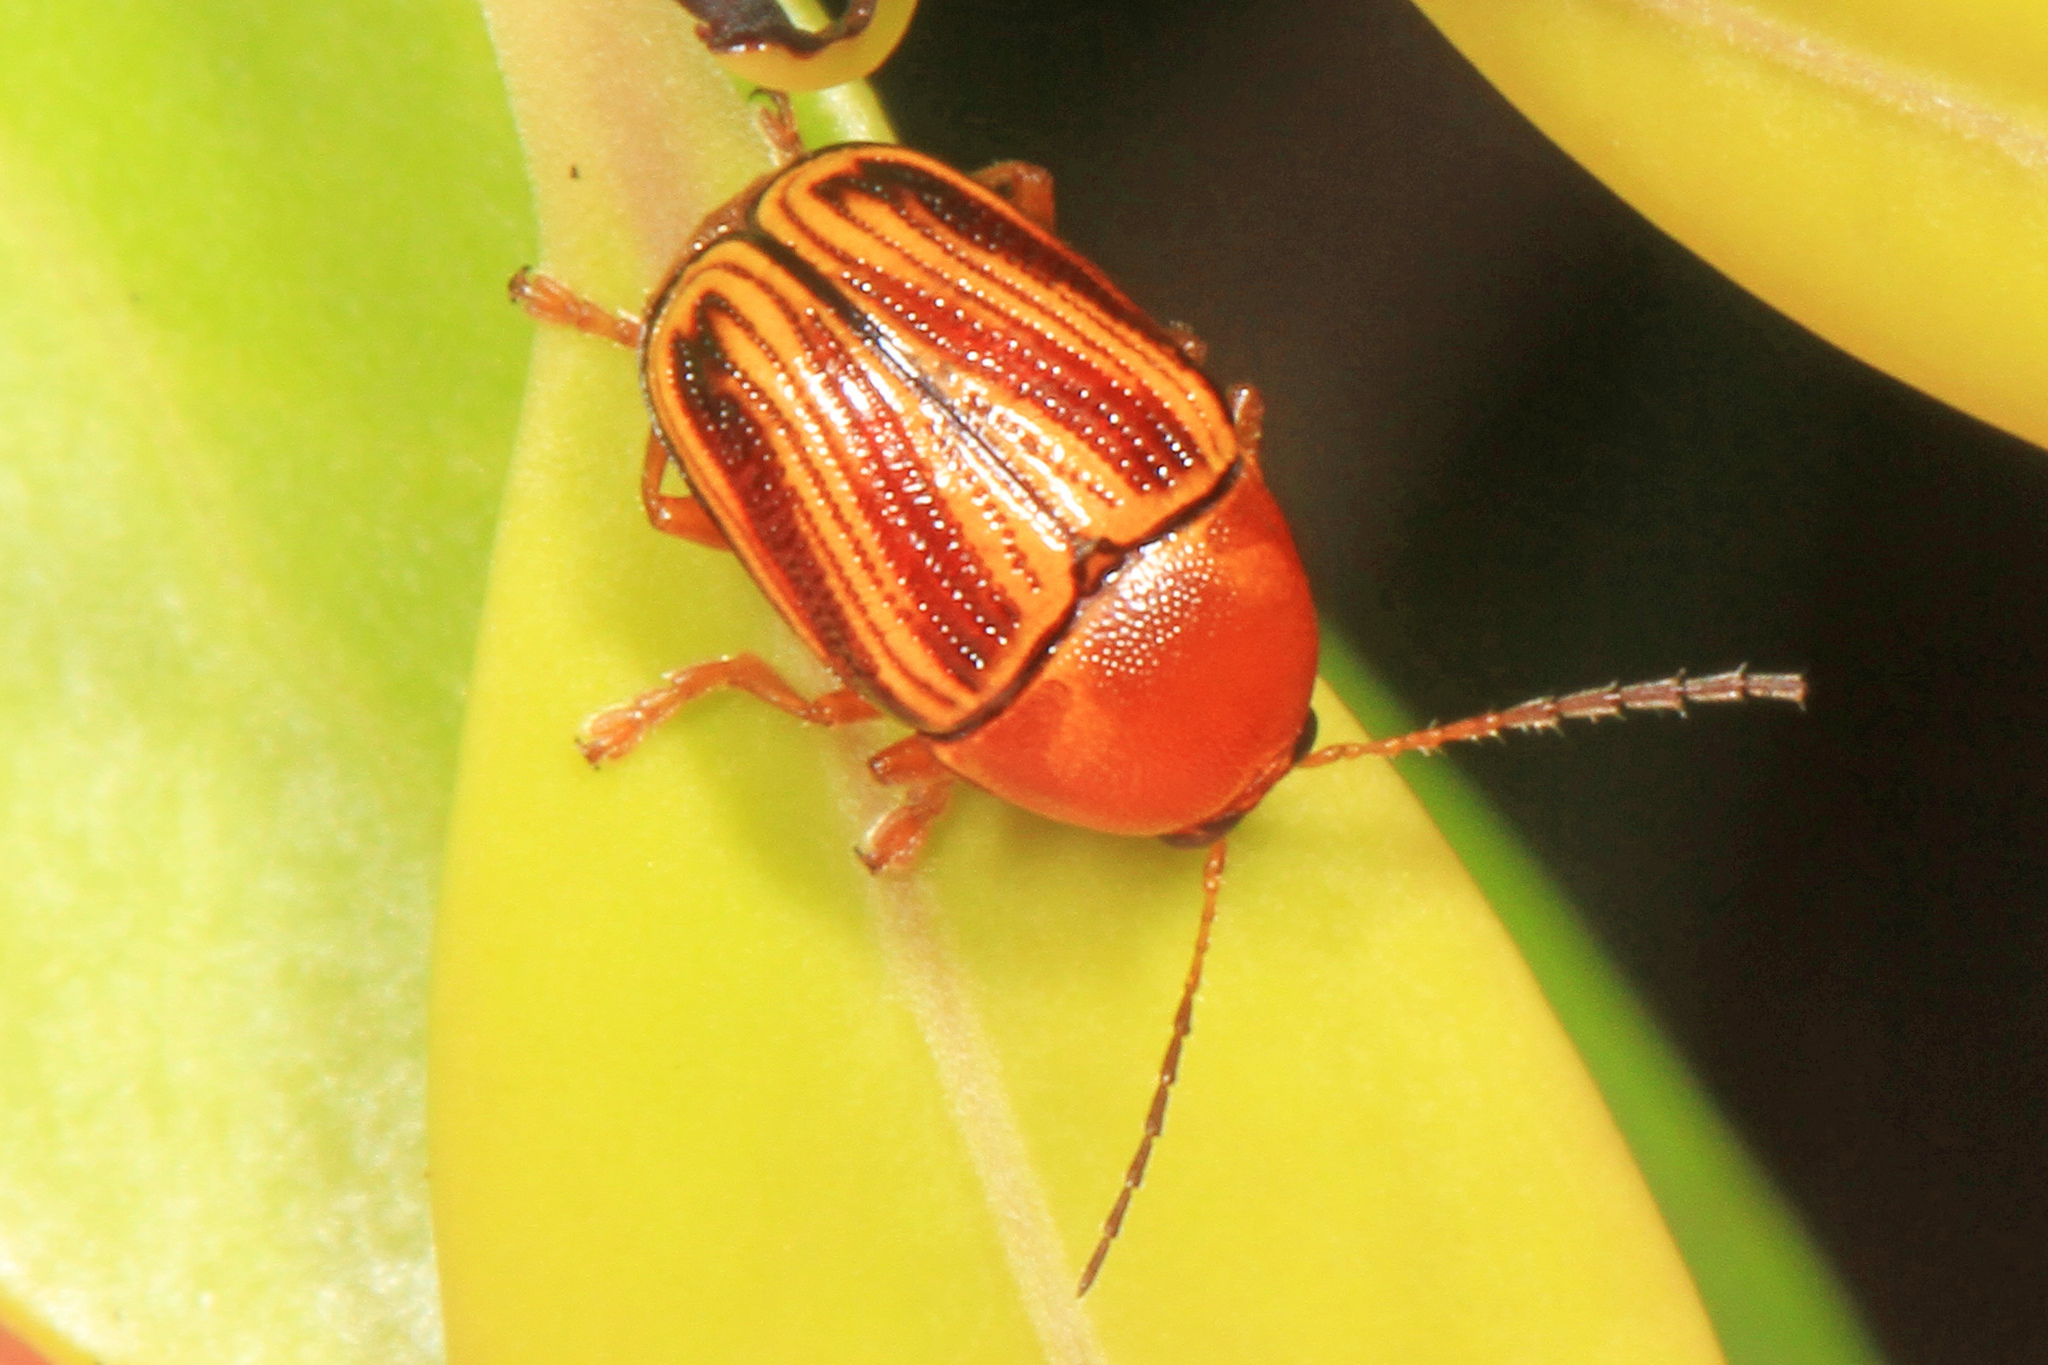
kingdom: Animalia
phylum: Arthropoda
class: Insecta
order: Coleoptera
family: Chrysomelidae
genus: Cryptocephalus
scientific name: Cryptocephalus obsoletus
